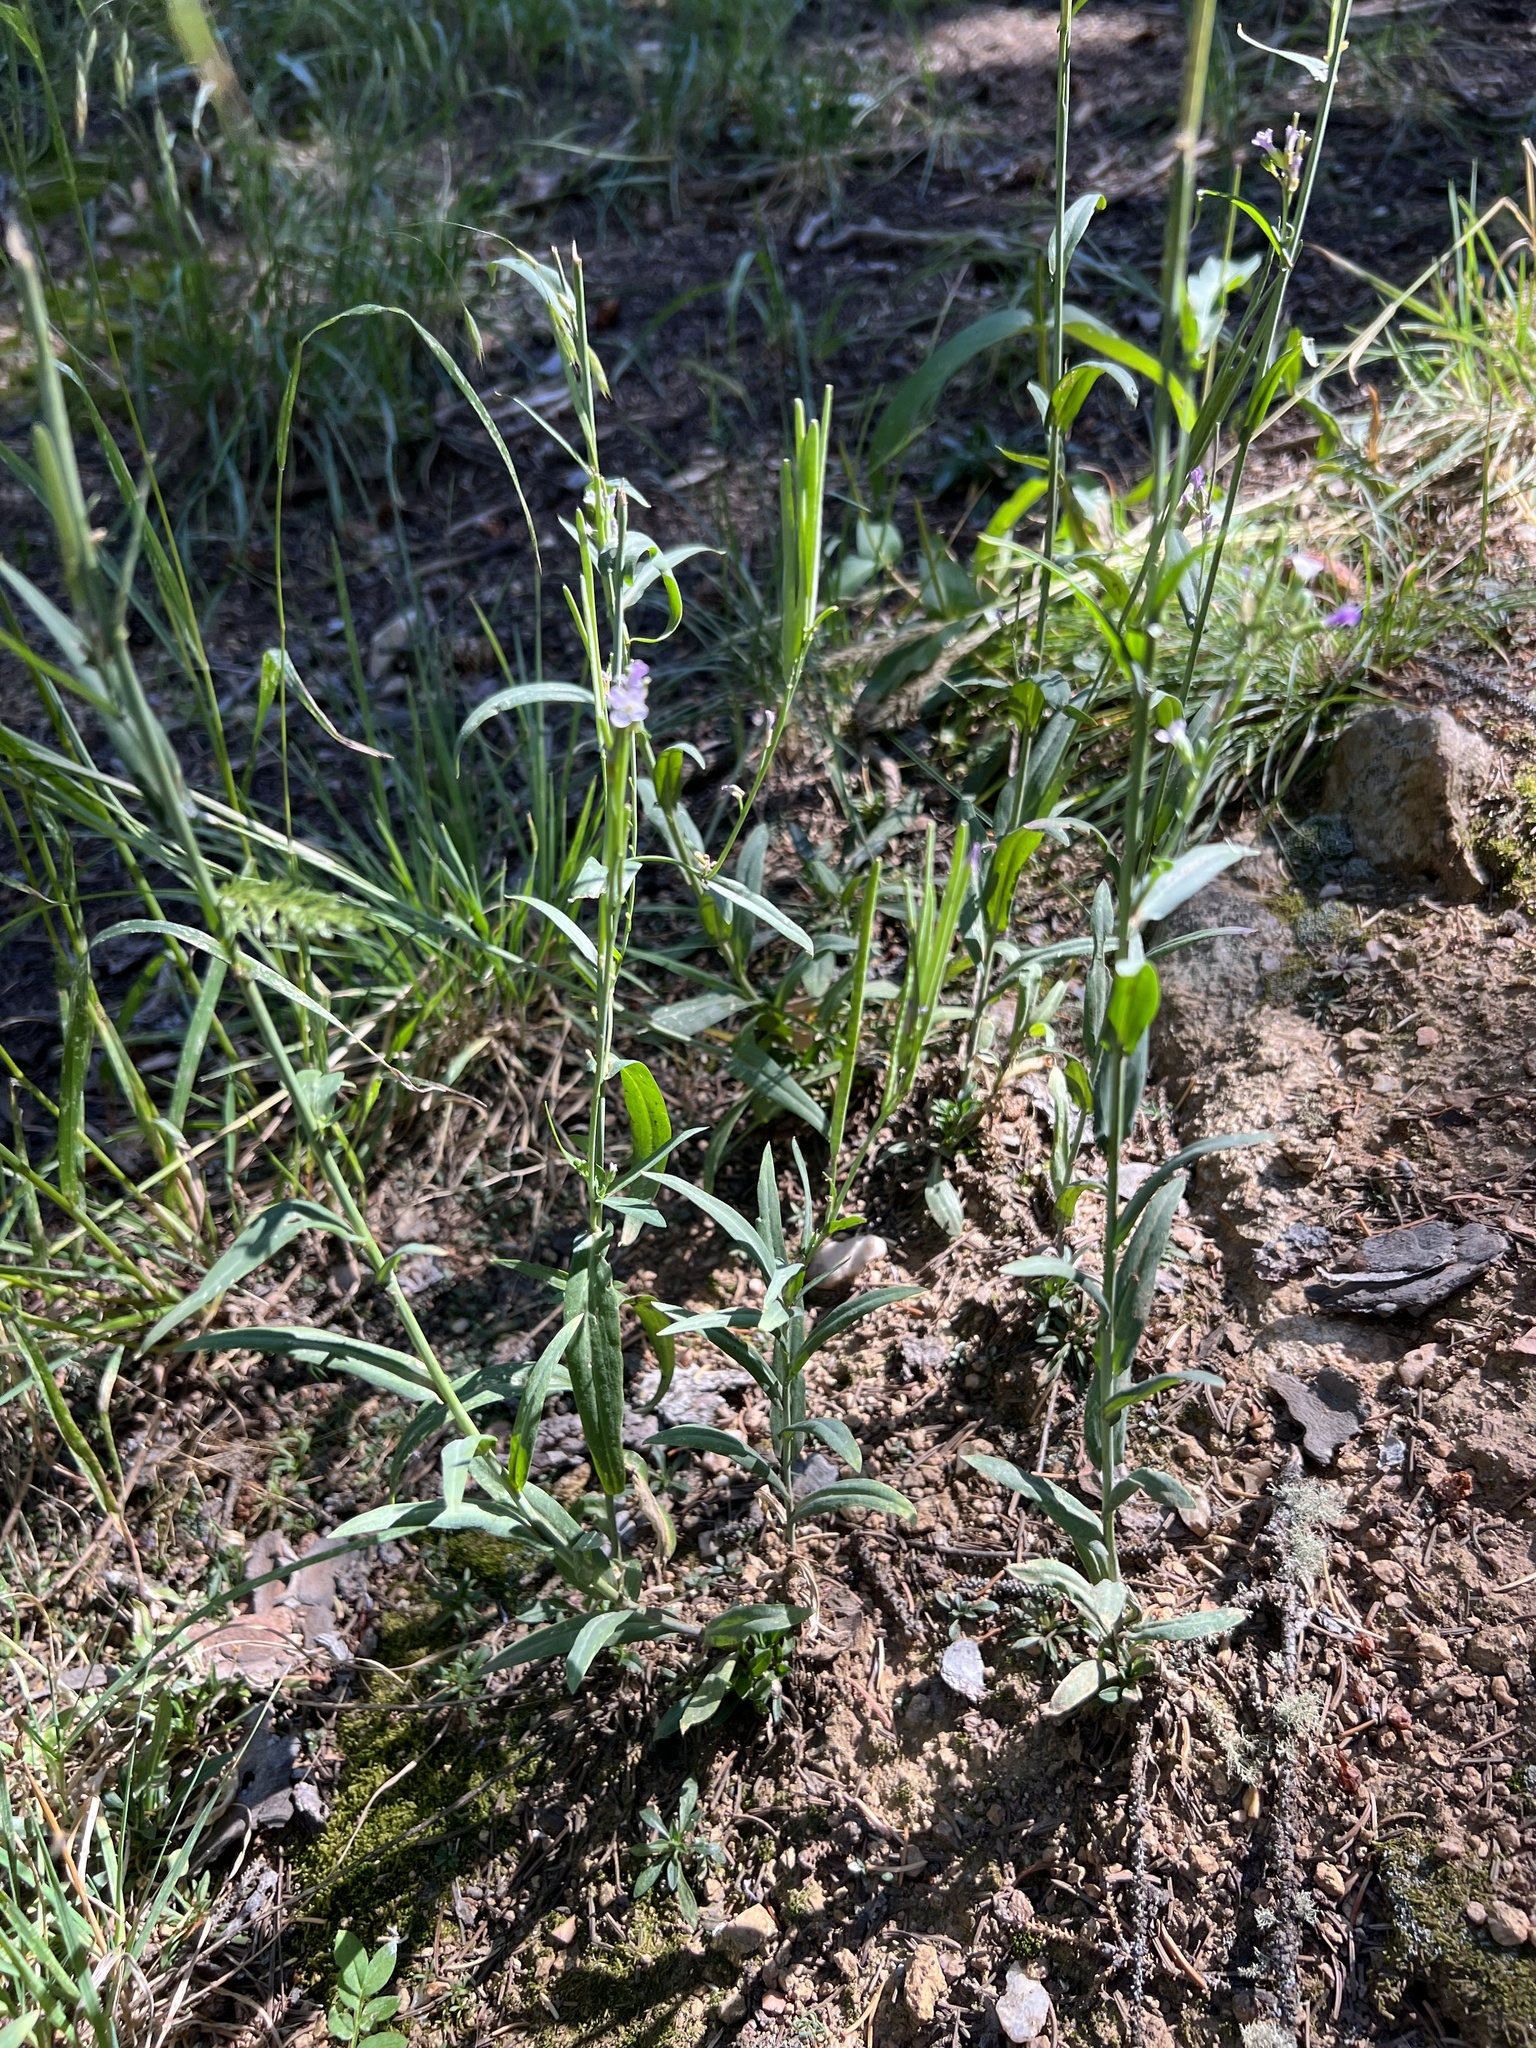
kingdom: Plantae
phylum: Tracheophyta
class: Magnoliopsida
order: Brassicales
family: Brassicaceae
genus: Boechera
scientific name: Boechera stricta
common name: Canadian rockcress
